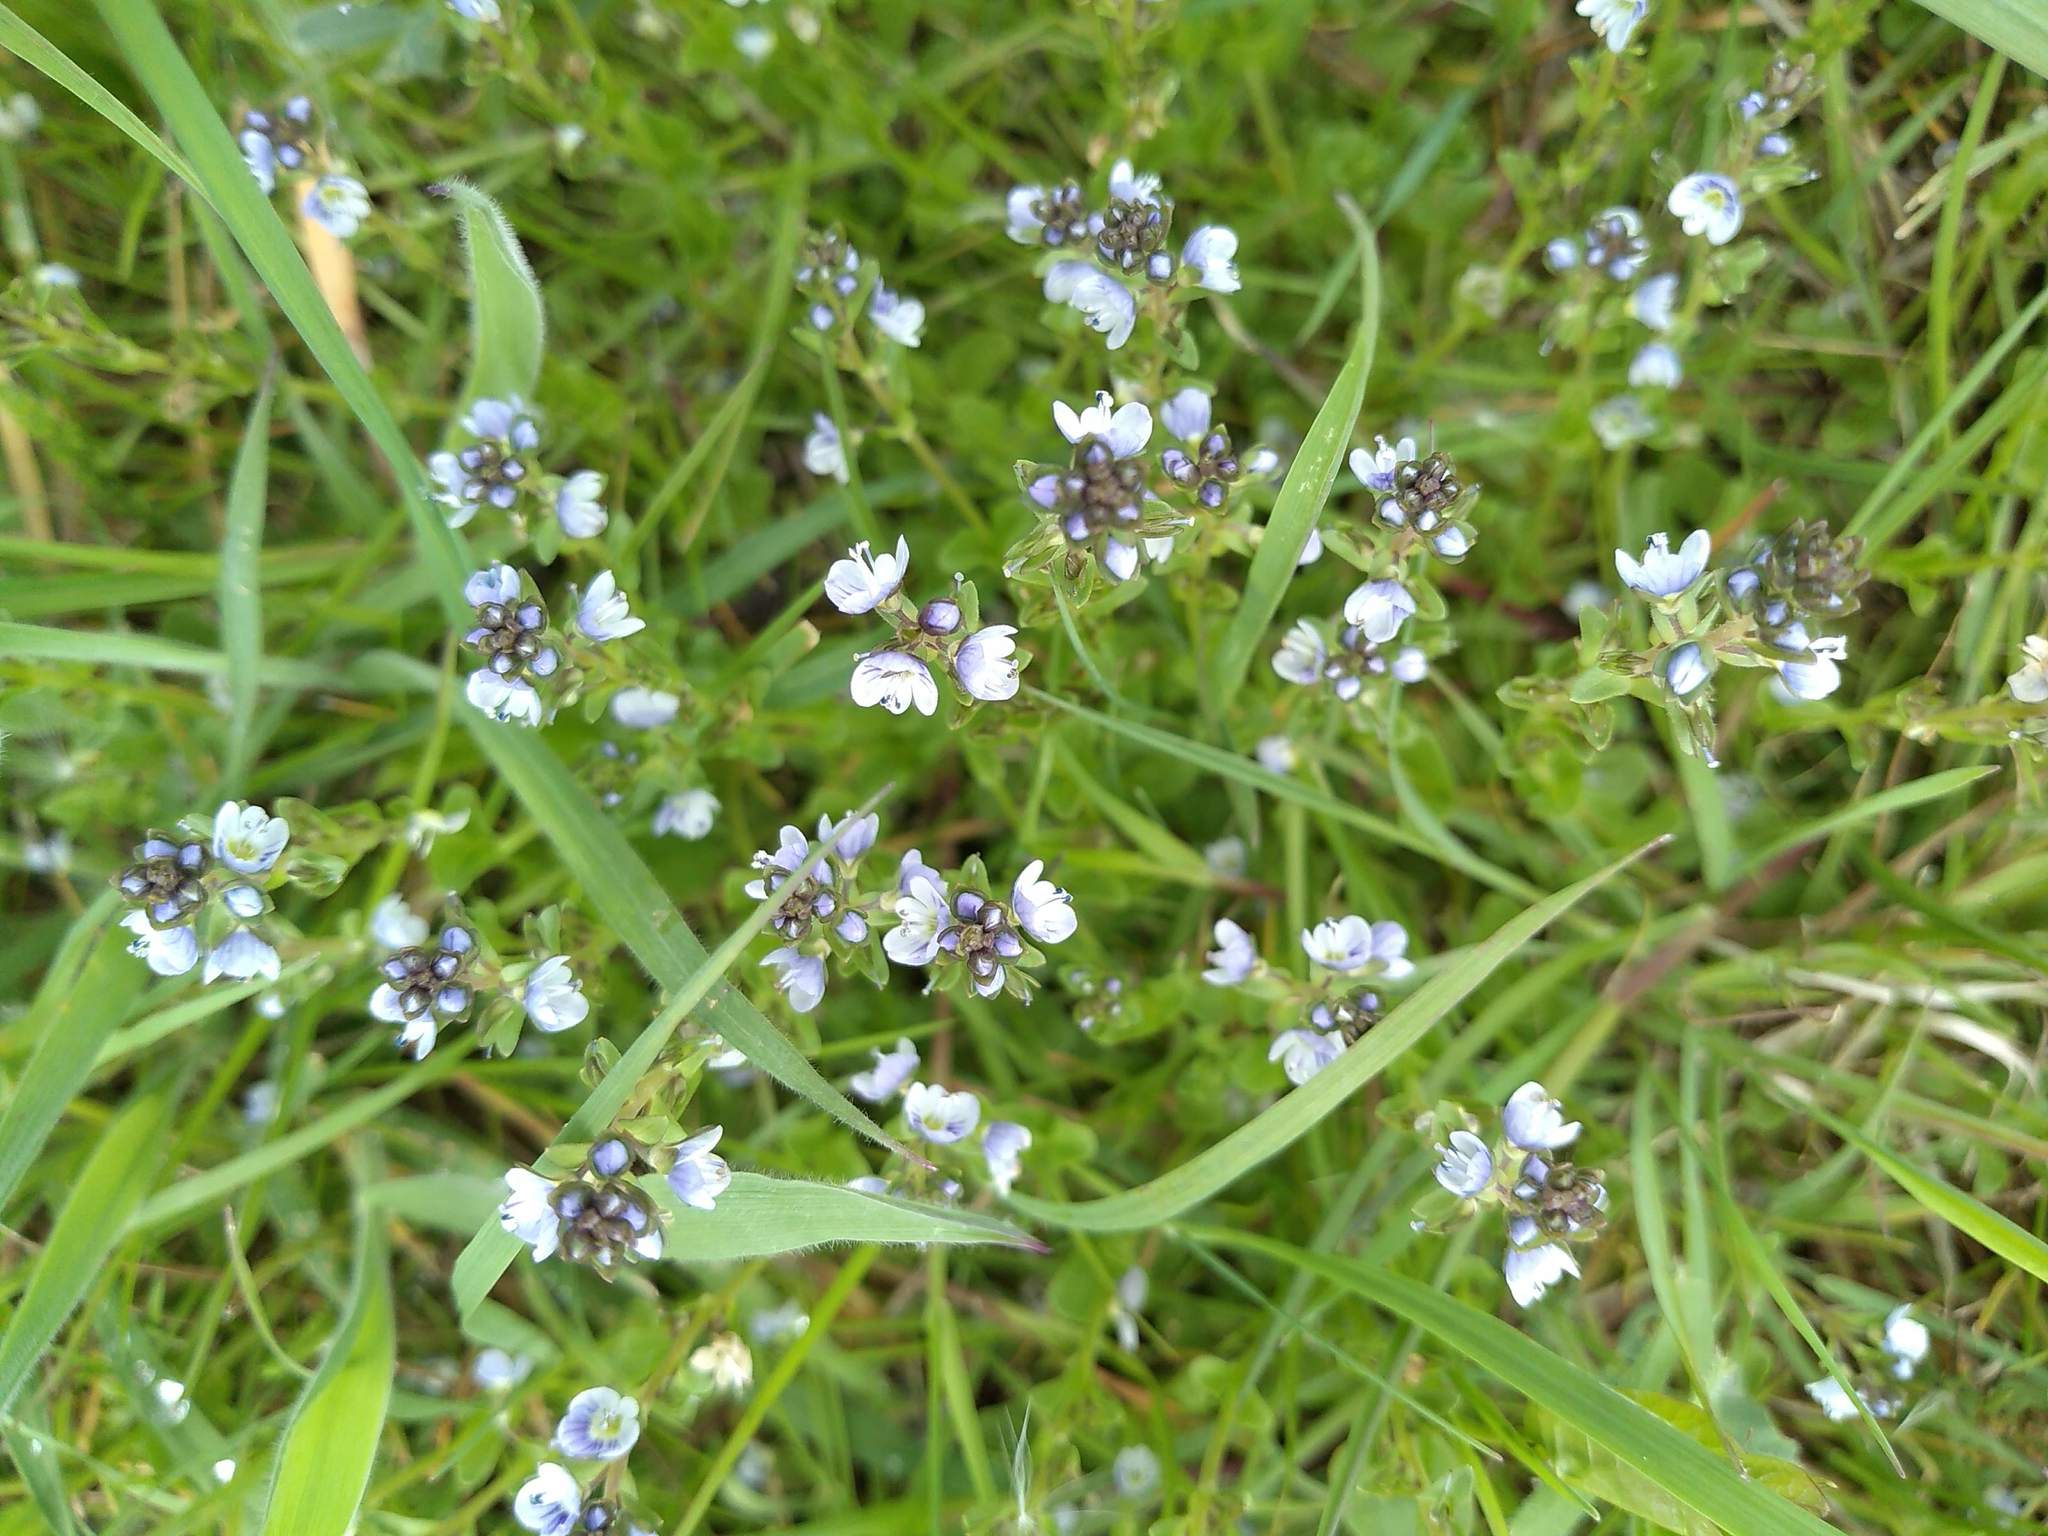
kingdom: Plantae
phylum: Tracheophyta
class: Magnoliopsida
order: Lamiales
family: Plantaginaceae
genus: Veronica
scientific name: Veronica serpyllifolia
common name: Thyme-leaved speedwell
